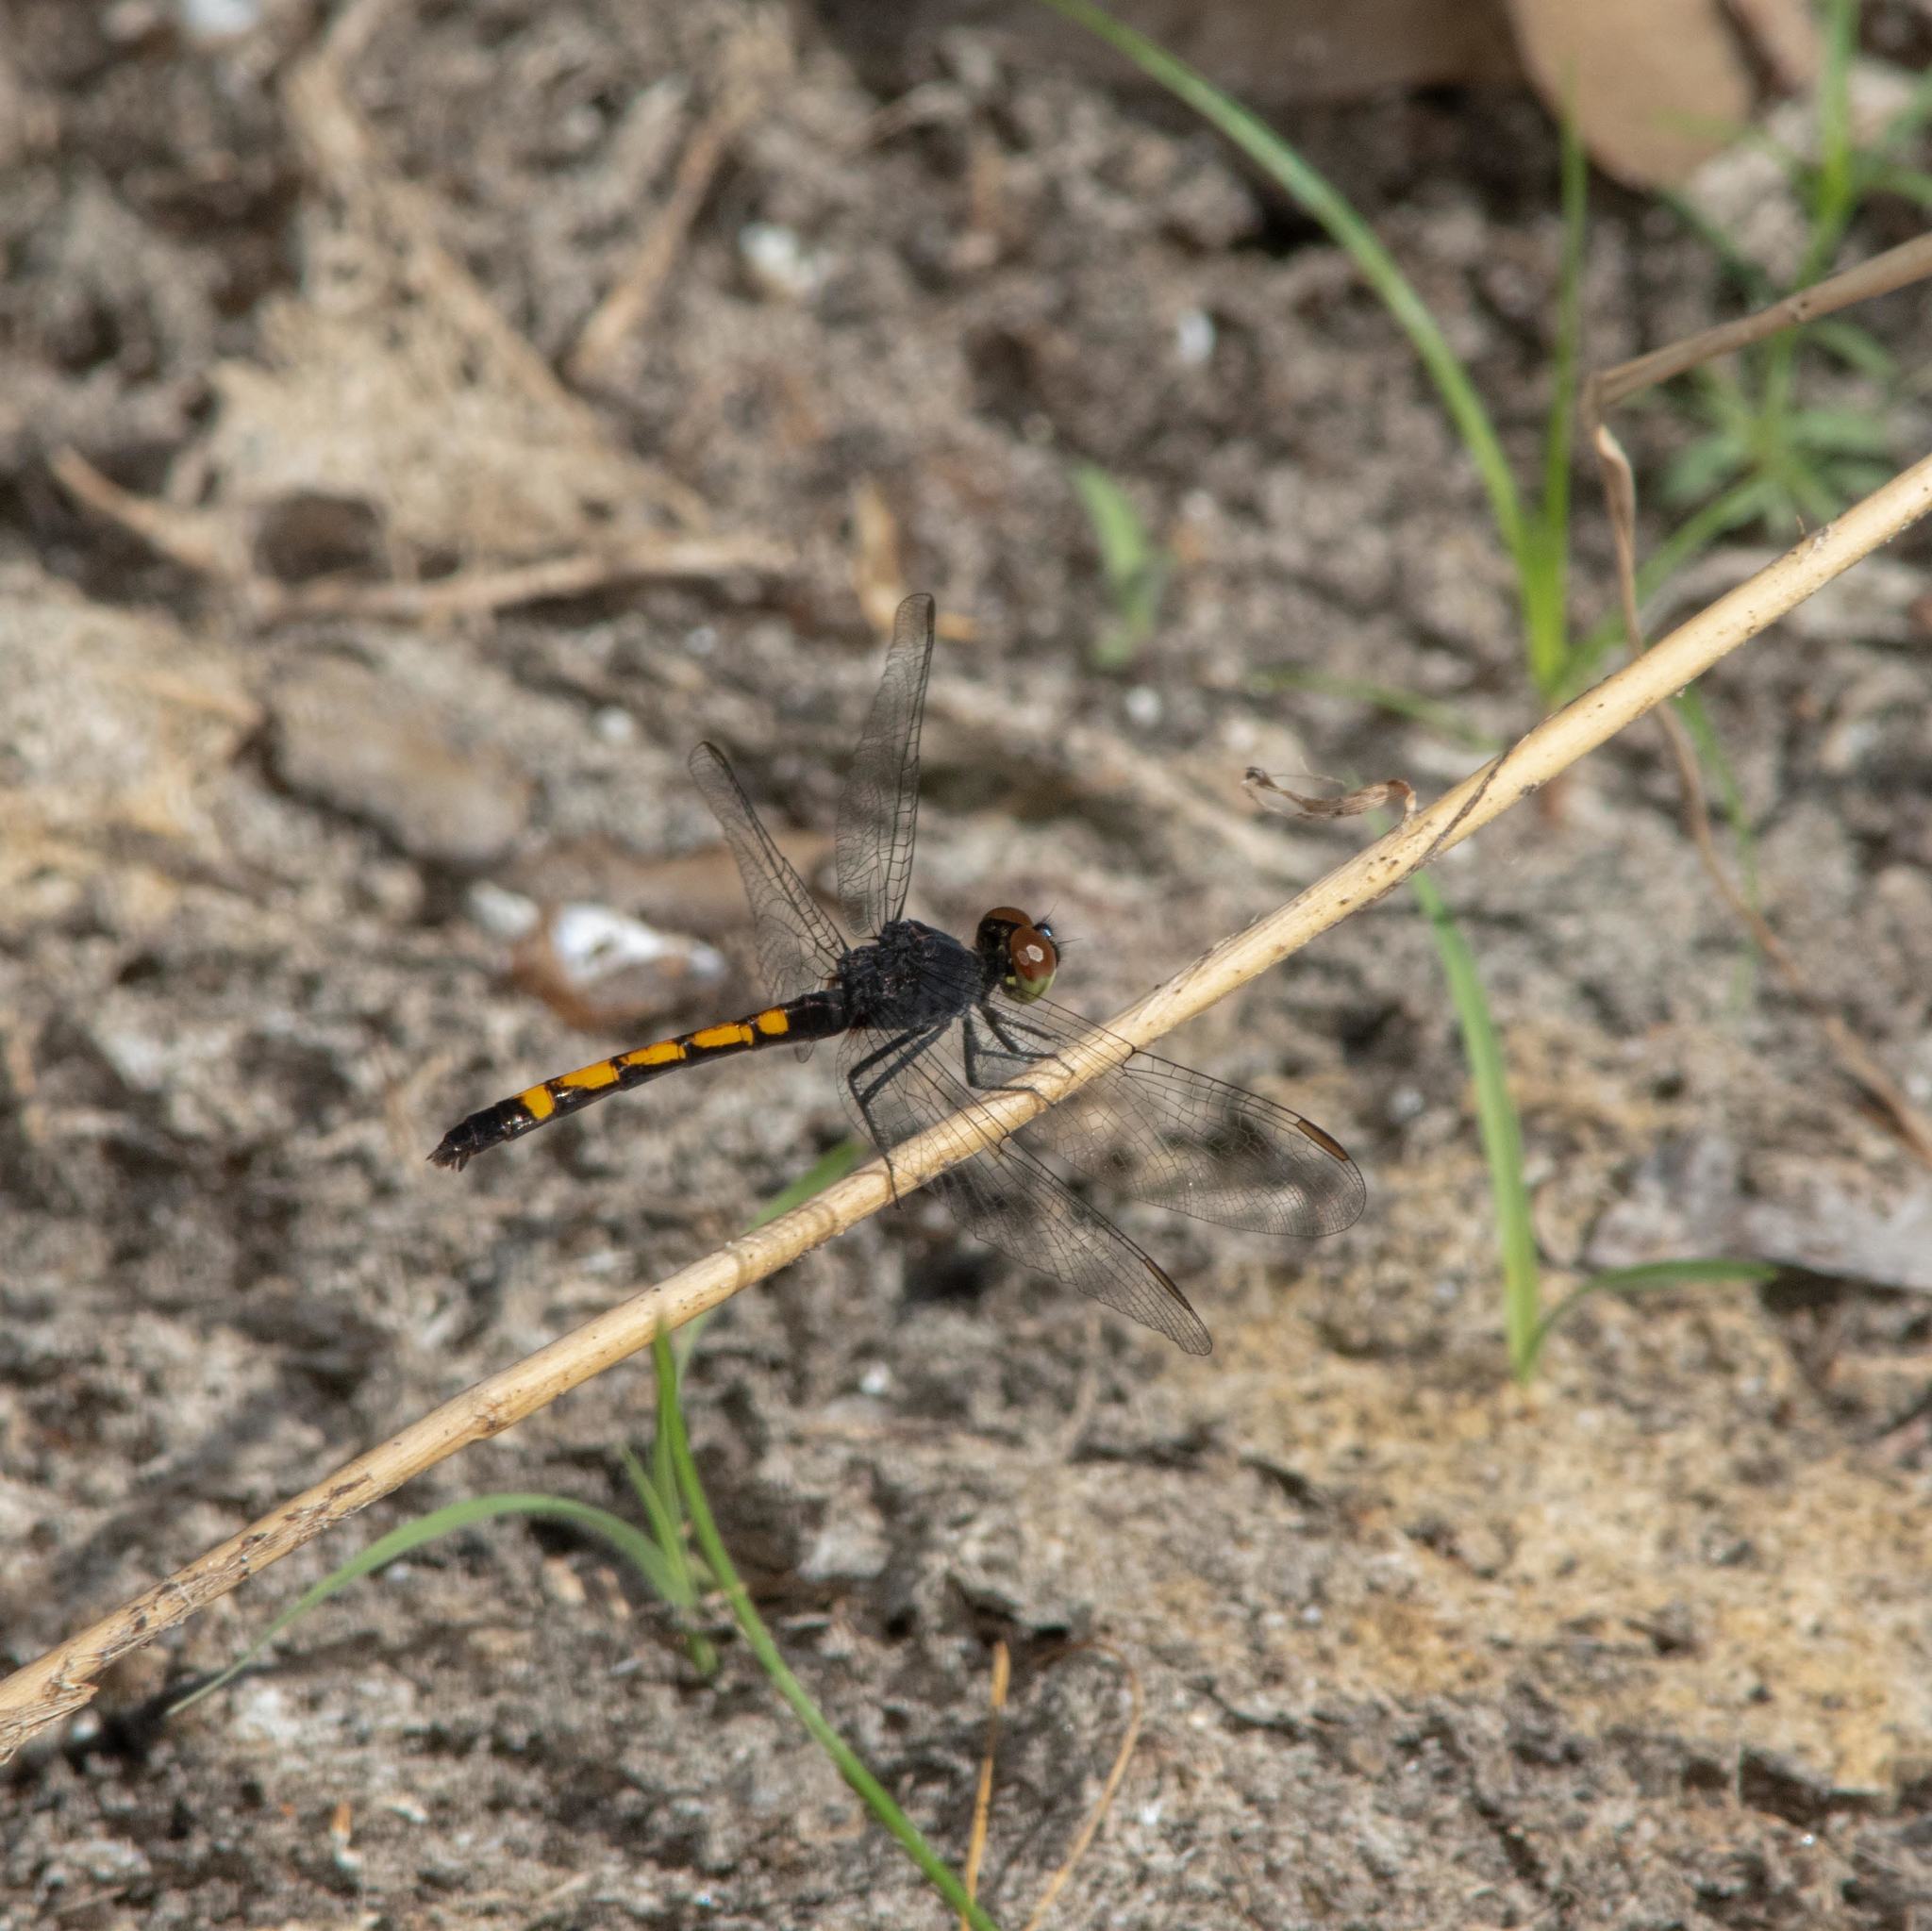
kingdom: Animalia
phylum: Arthropoda
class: Insecta
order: Odonata
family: Libellulidae
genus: Erythrodiplax
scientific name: Erythrodiplax berenice
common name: Seaside dragonlet
